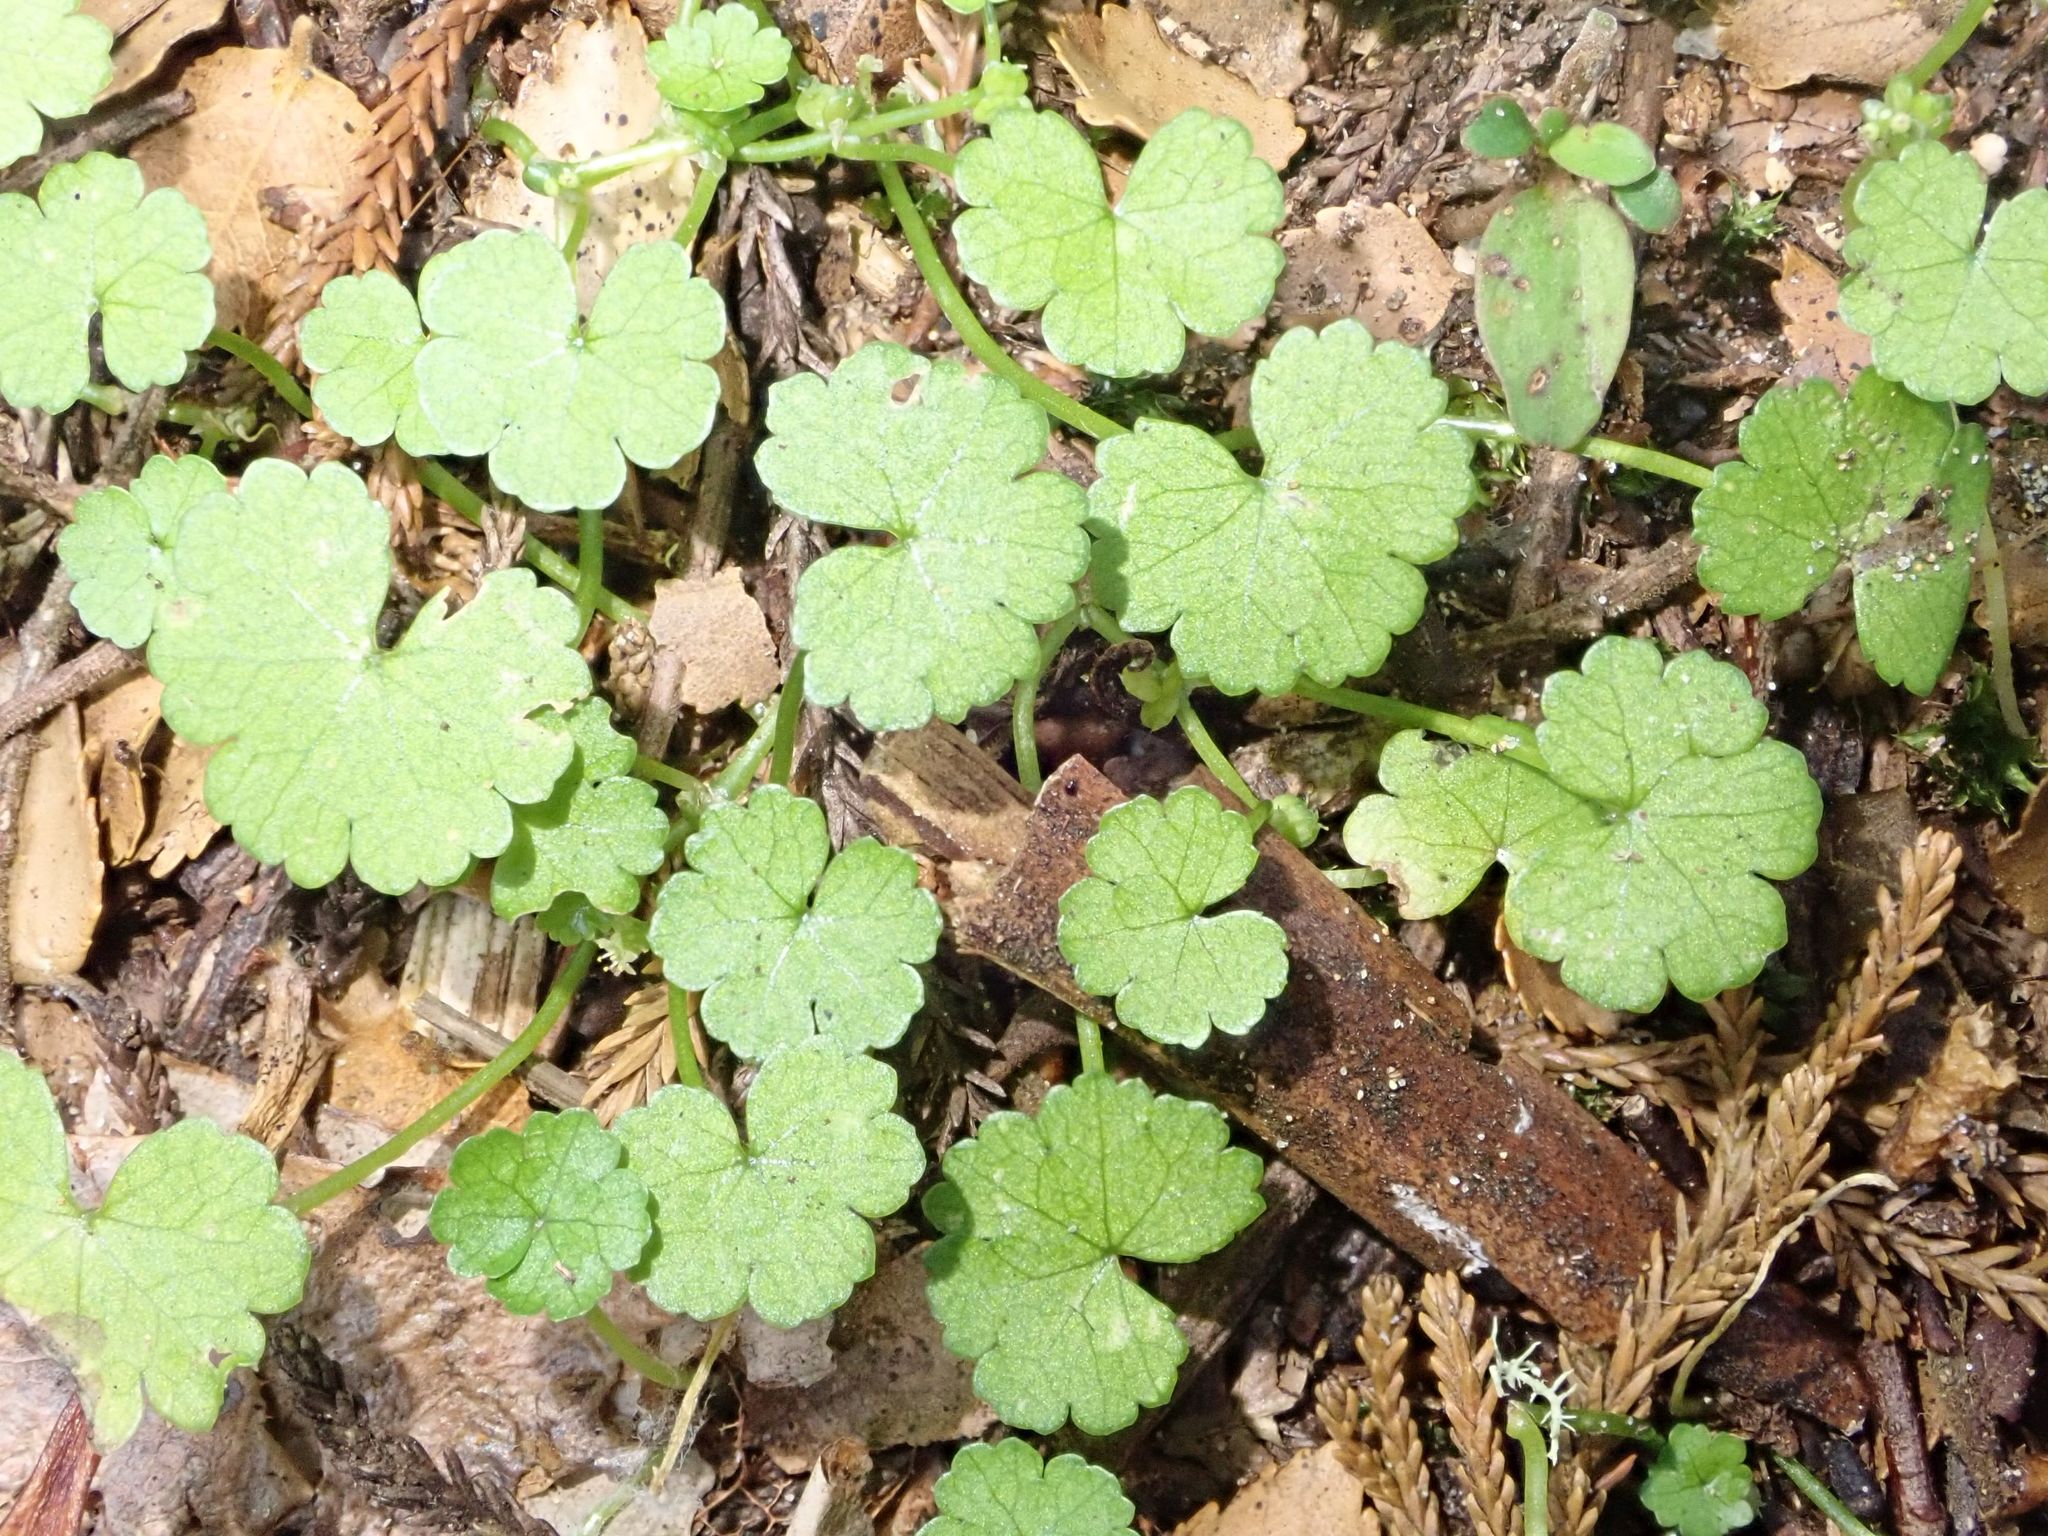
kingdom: Plantae
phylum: Tracheophyta
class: Magnoliopsida
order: Apiales
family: Araliaceae
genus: Hydrocotyle
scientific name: Hydrocotyle heteromeria
